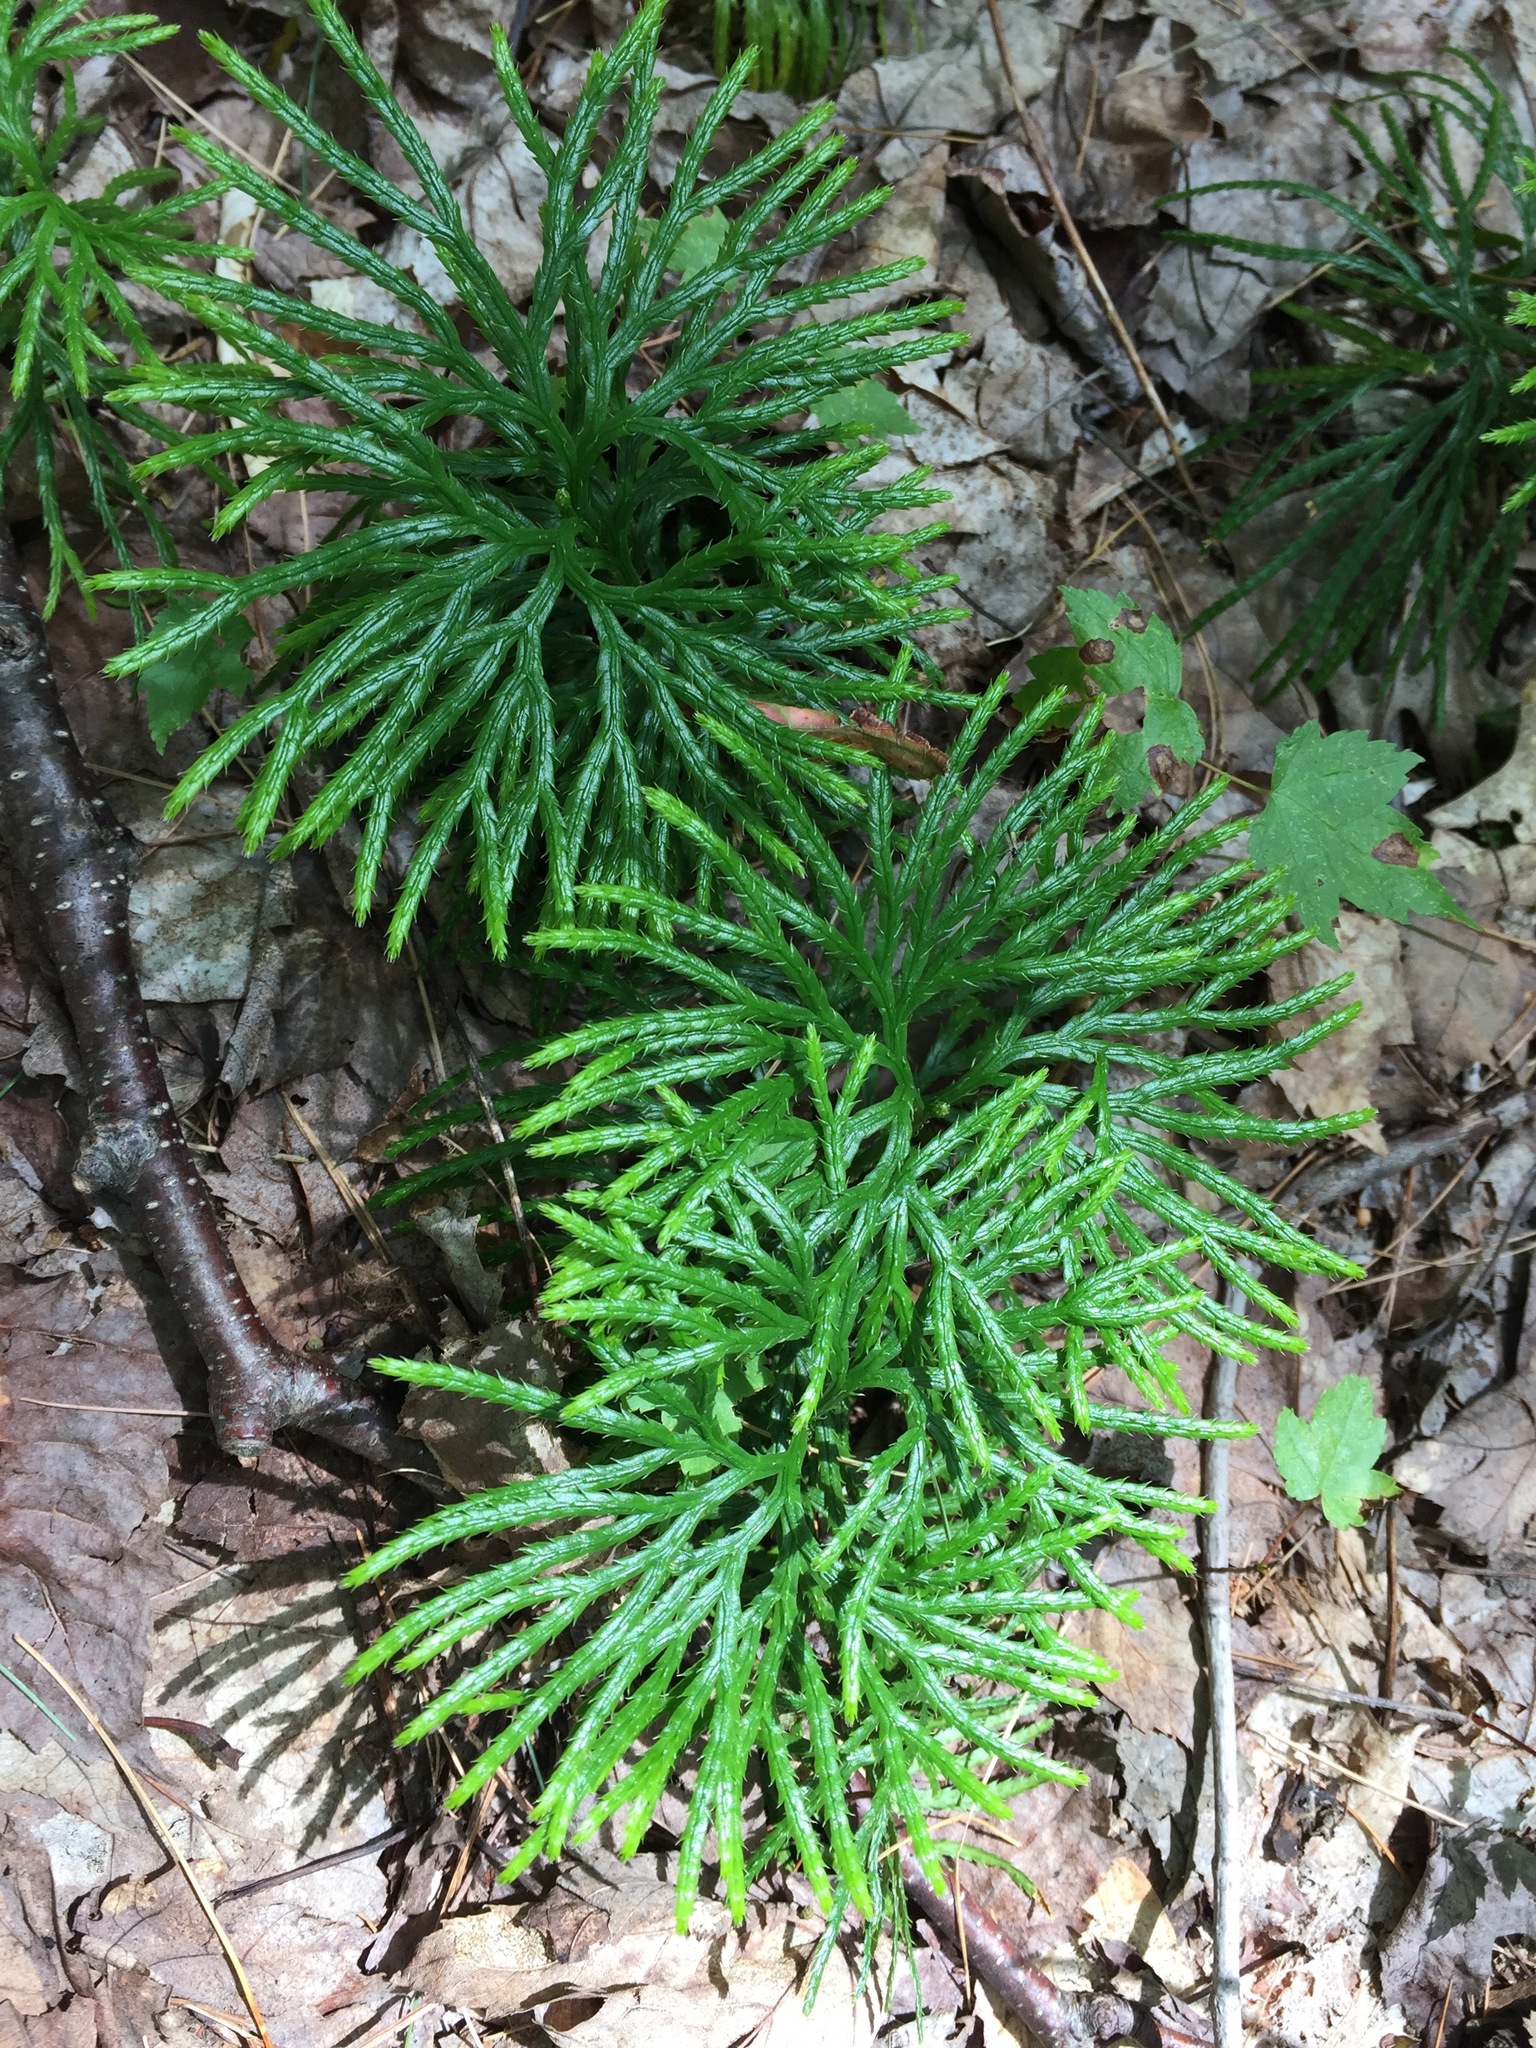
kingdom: Plantae
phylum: Tracheophyta
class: Lycopodiopsida
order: Lycopodiales
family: Lycopodiaceae
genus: Diphasiastrum
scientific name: Diphasiastrum digitatum
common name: Southern running-pine
